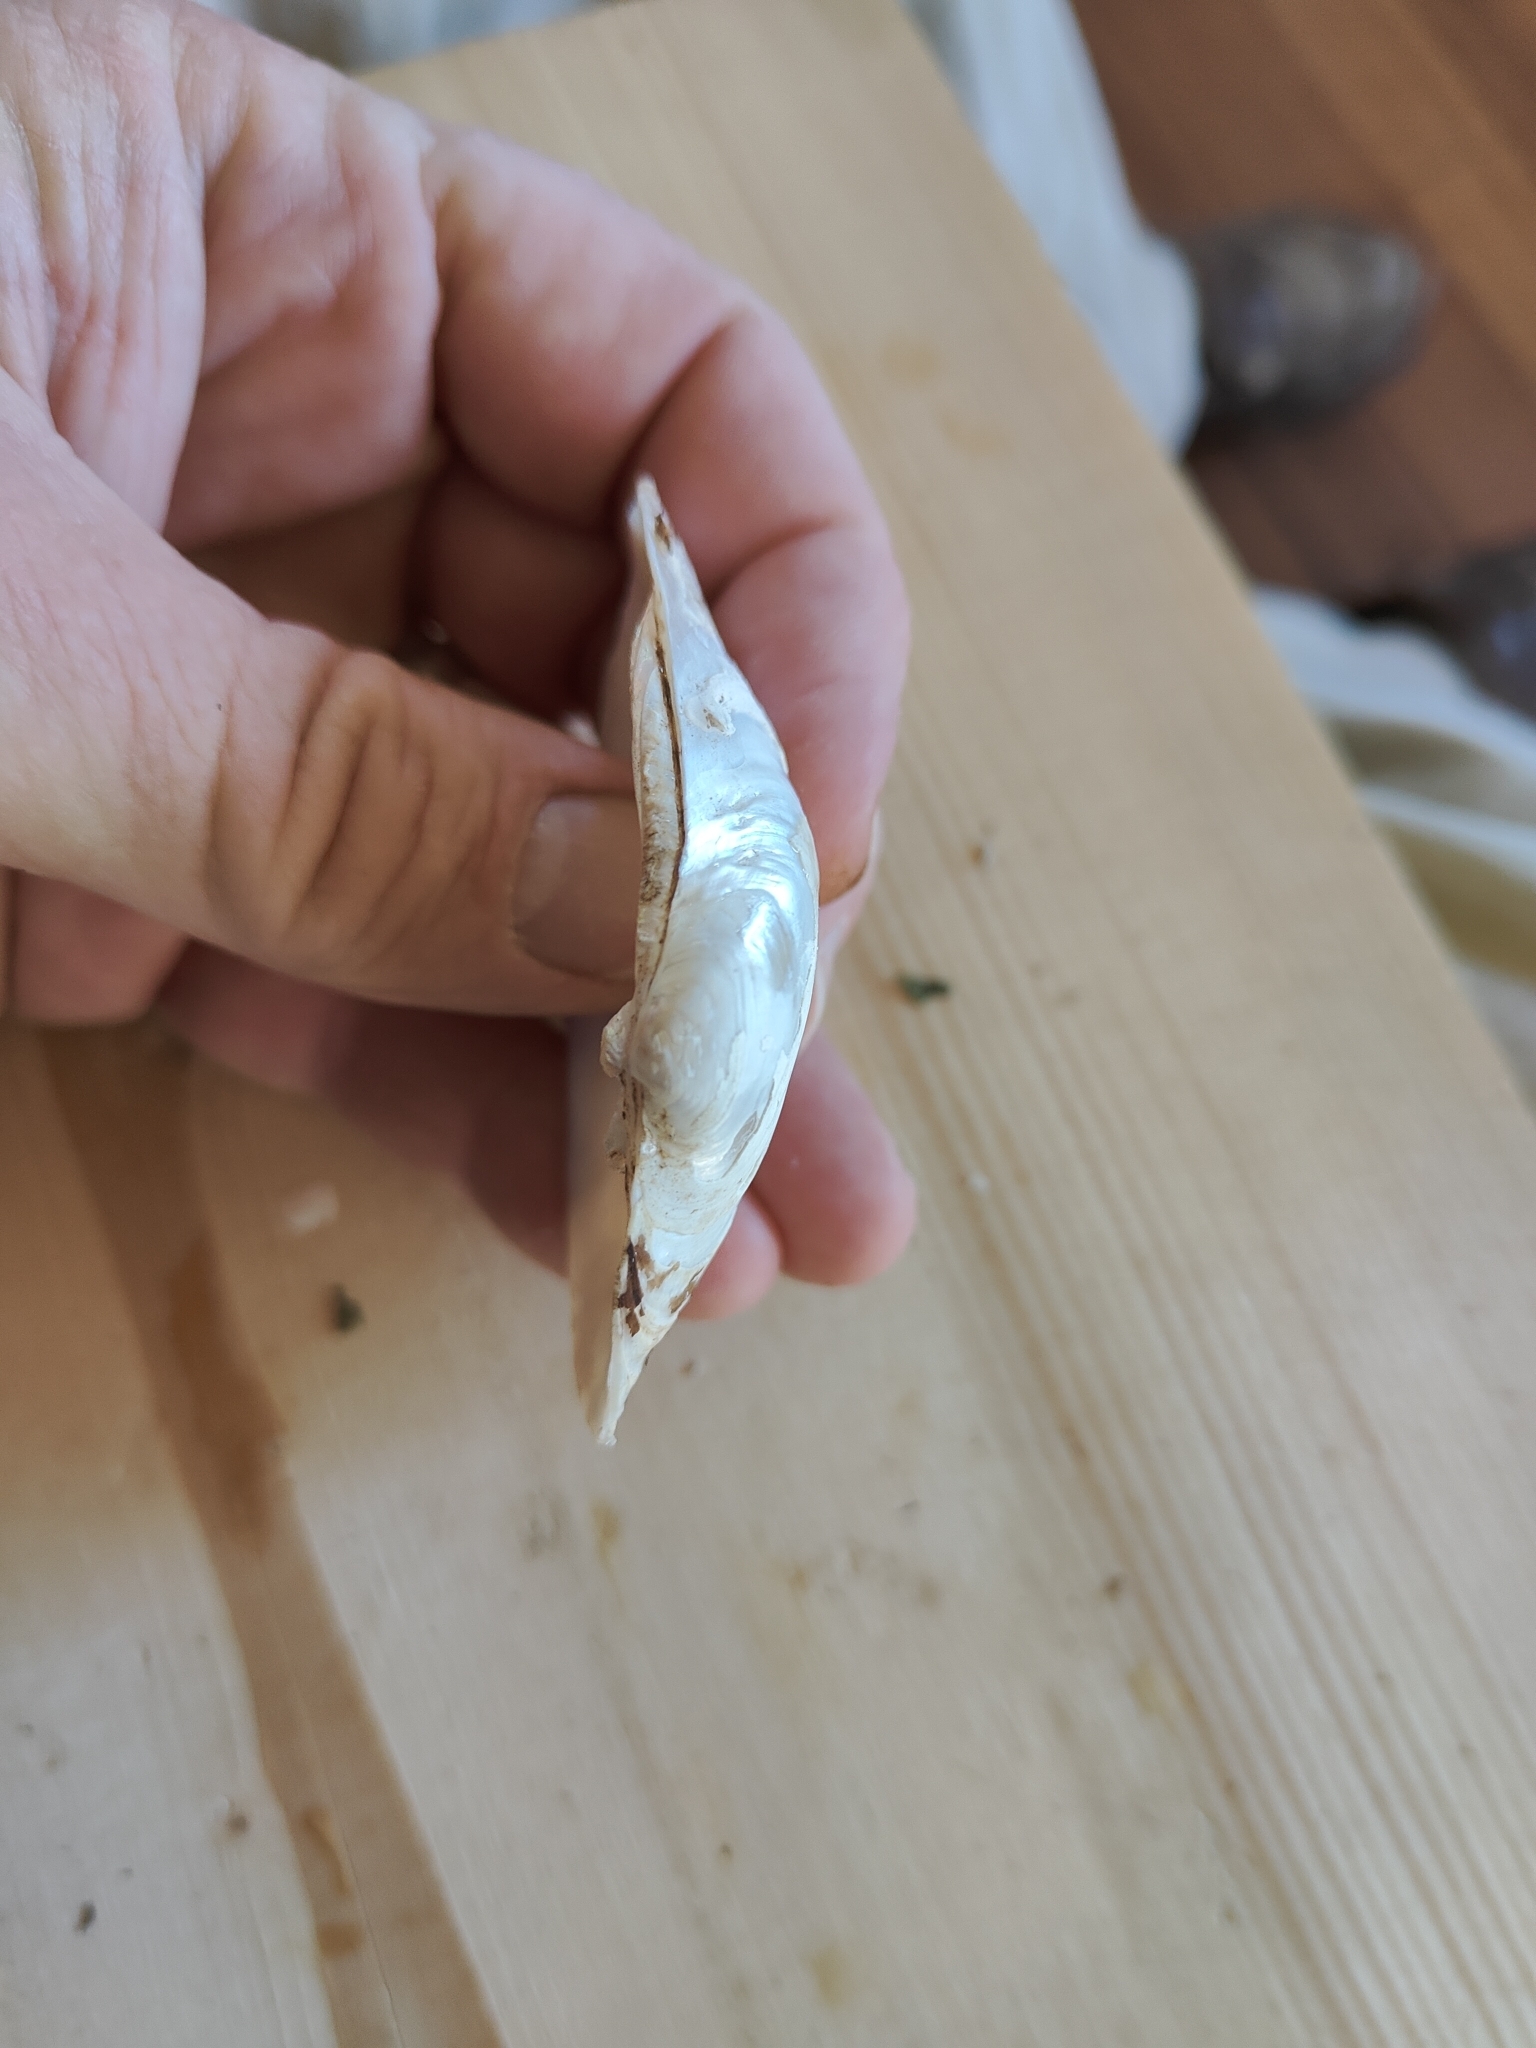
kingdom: Animalia
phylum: Mollusca
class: Bivalvia
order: Unionida
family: Unionidae
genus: Lampsilis
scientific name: Lampsilis cardium
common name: Plain pocketbook
